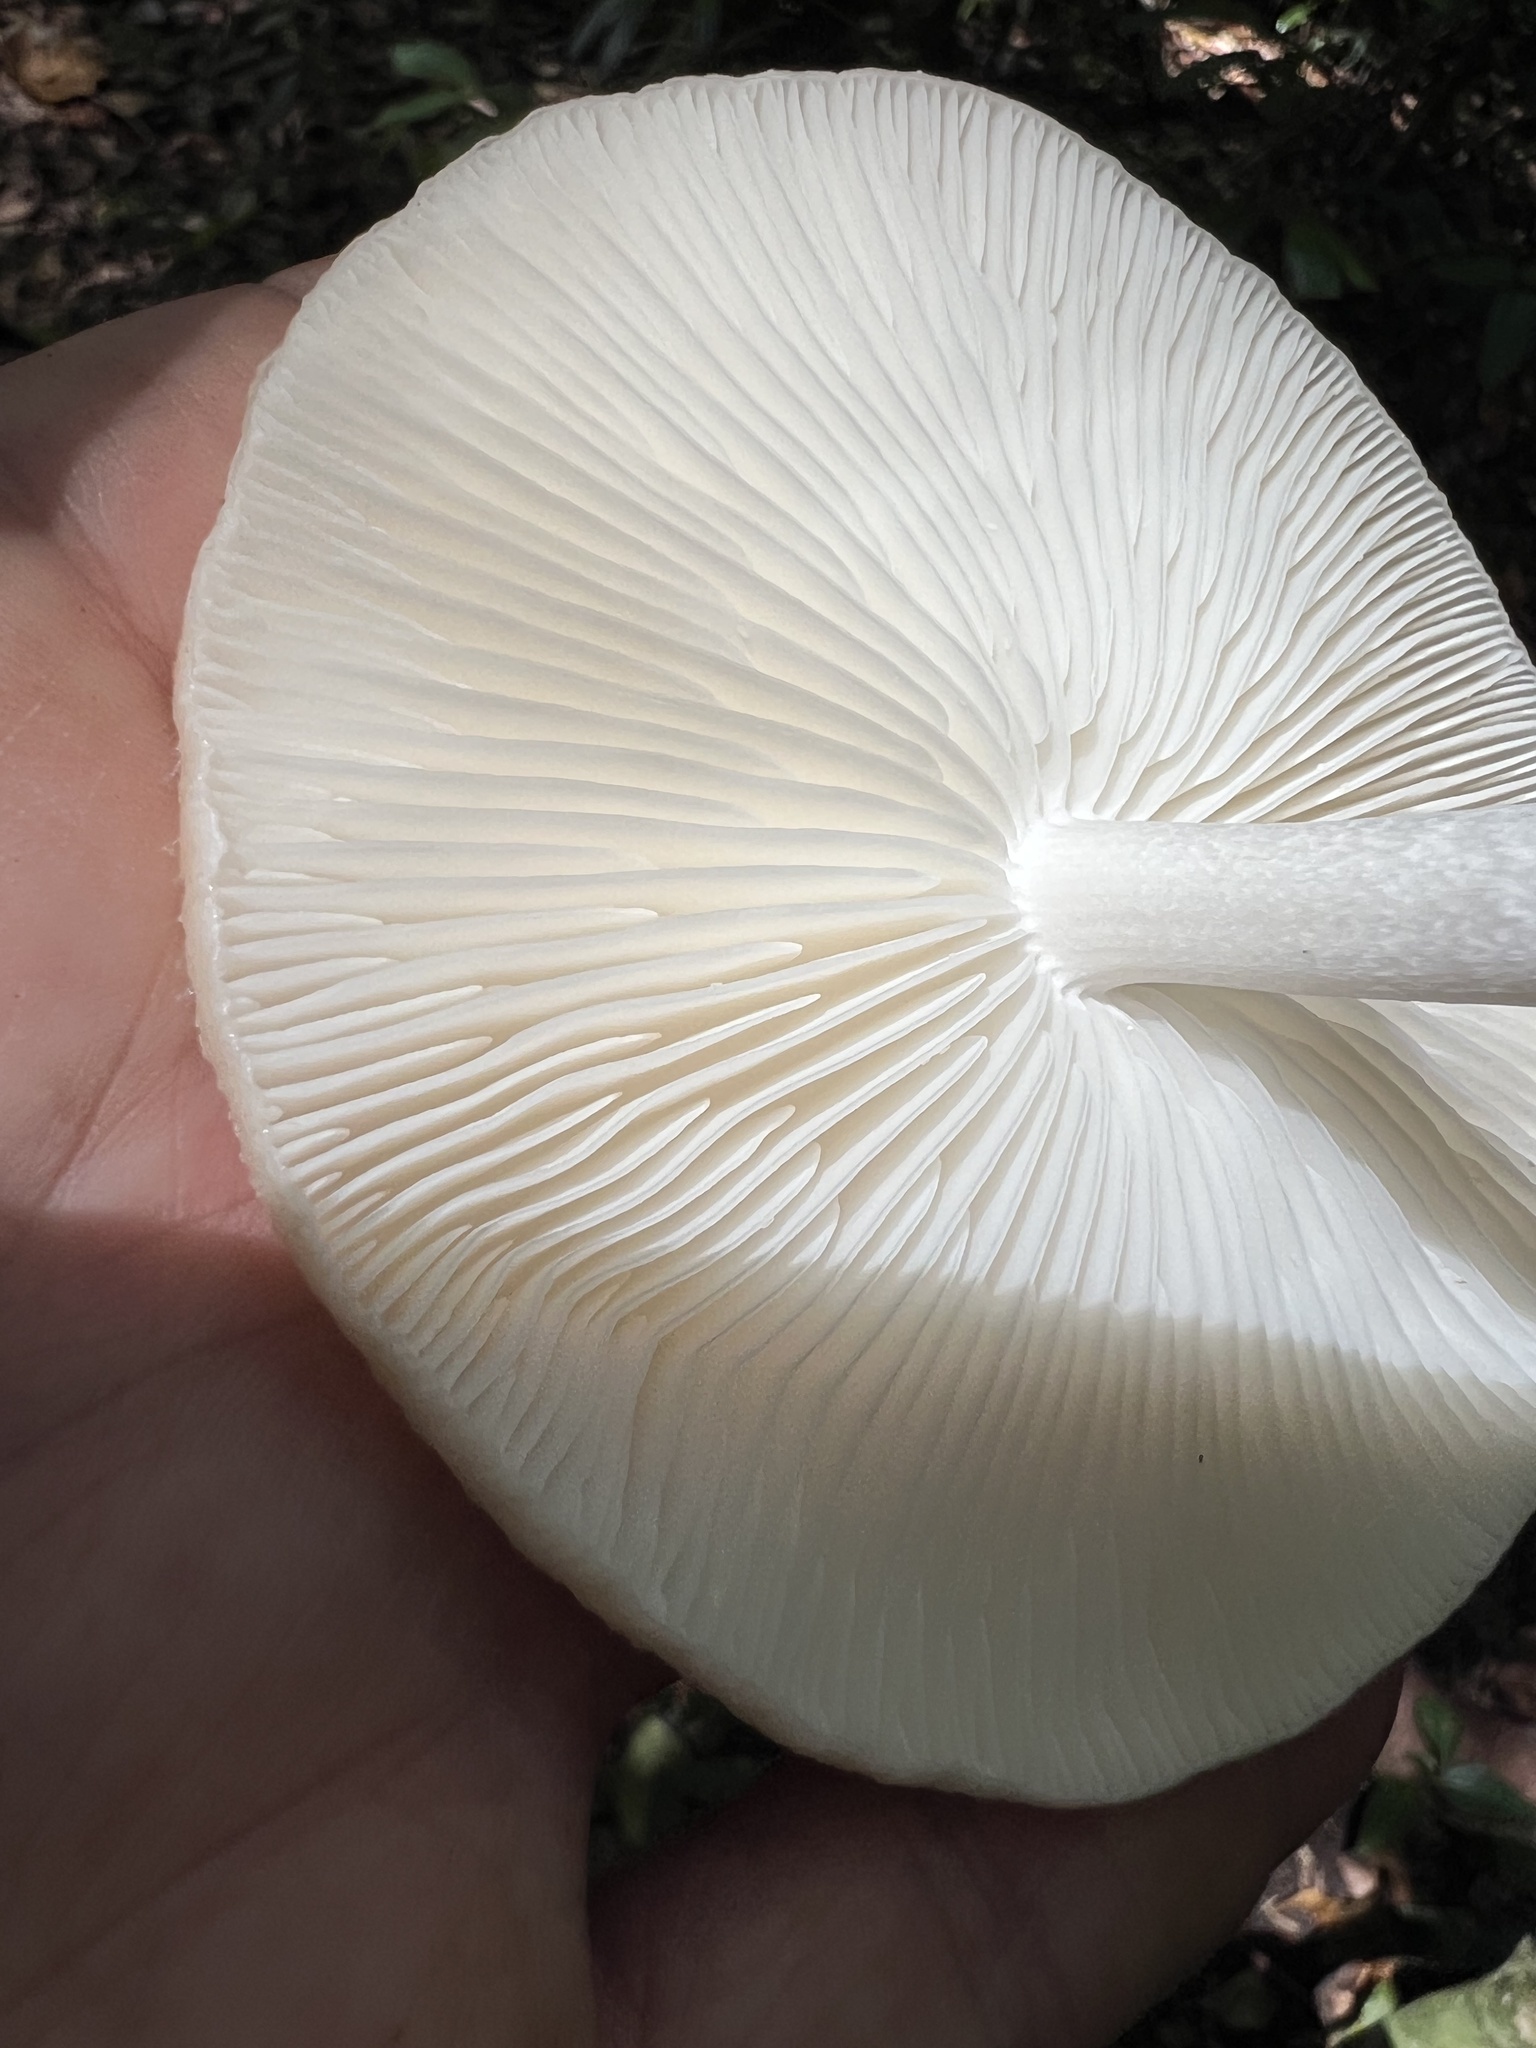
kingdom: Fungi
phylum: Basidiomycota
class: Agaricomycetes
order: Agaricales
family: Physalacriaceae
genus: Oudemansiella
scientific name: Oudemansiella exannulata
